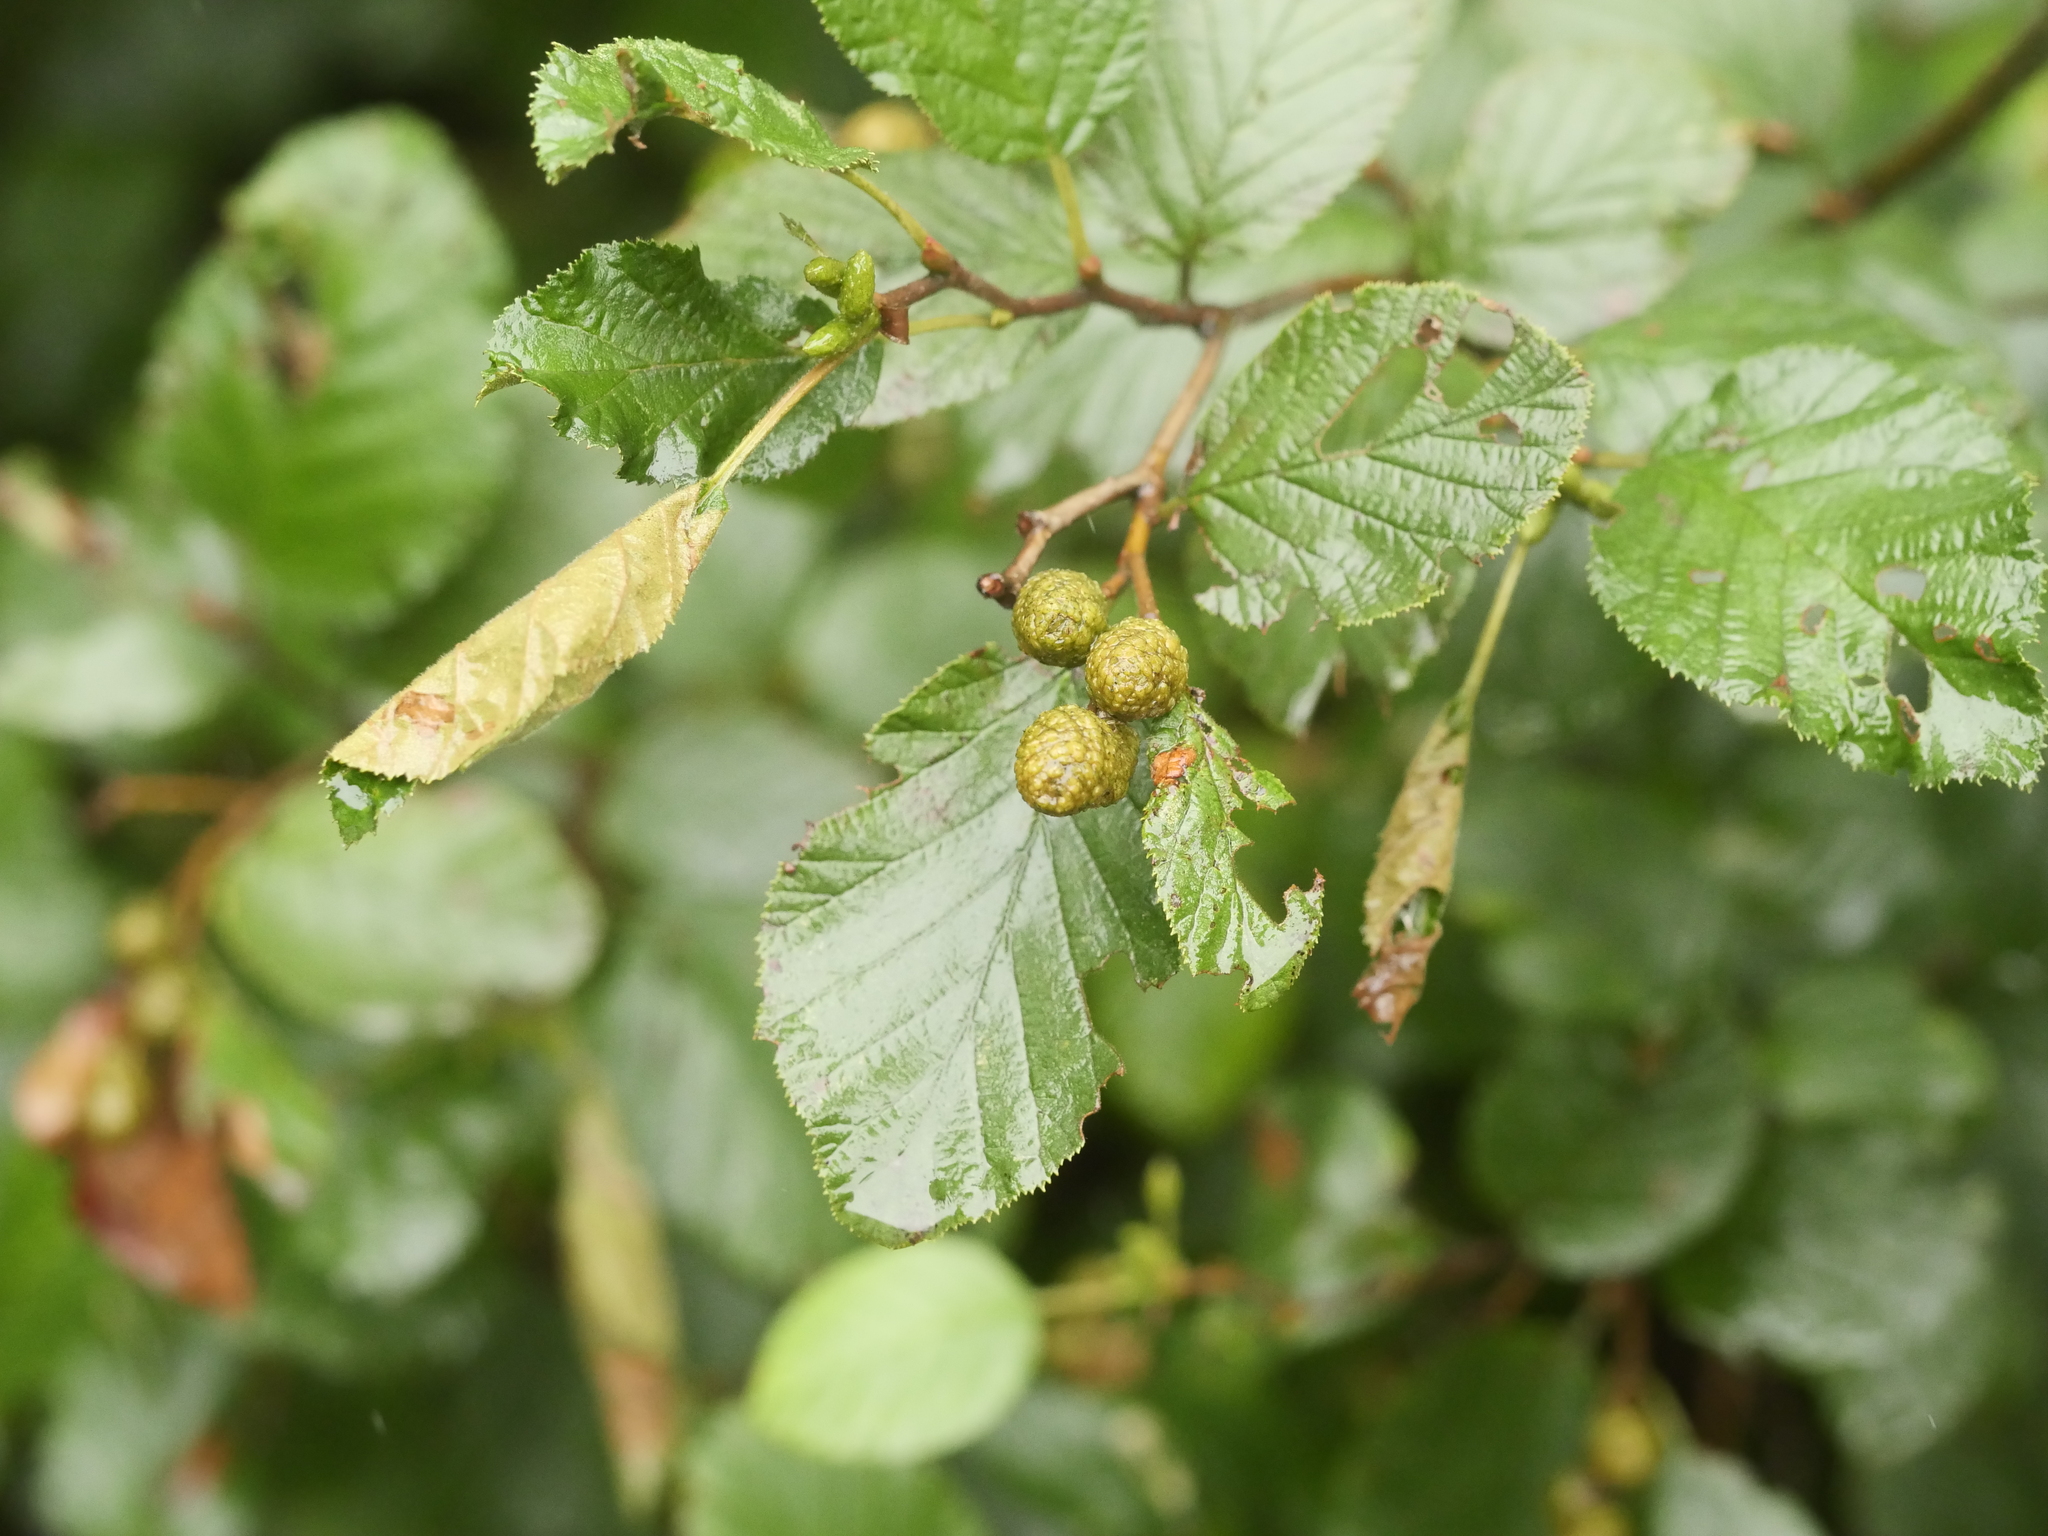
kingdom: Plantae
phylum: Tracheophyta
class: Magnoliopsida
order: Fagales
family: Betulaceae
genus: Alnus
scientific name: Alnus alnobetula
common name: Green alder
